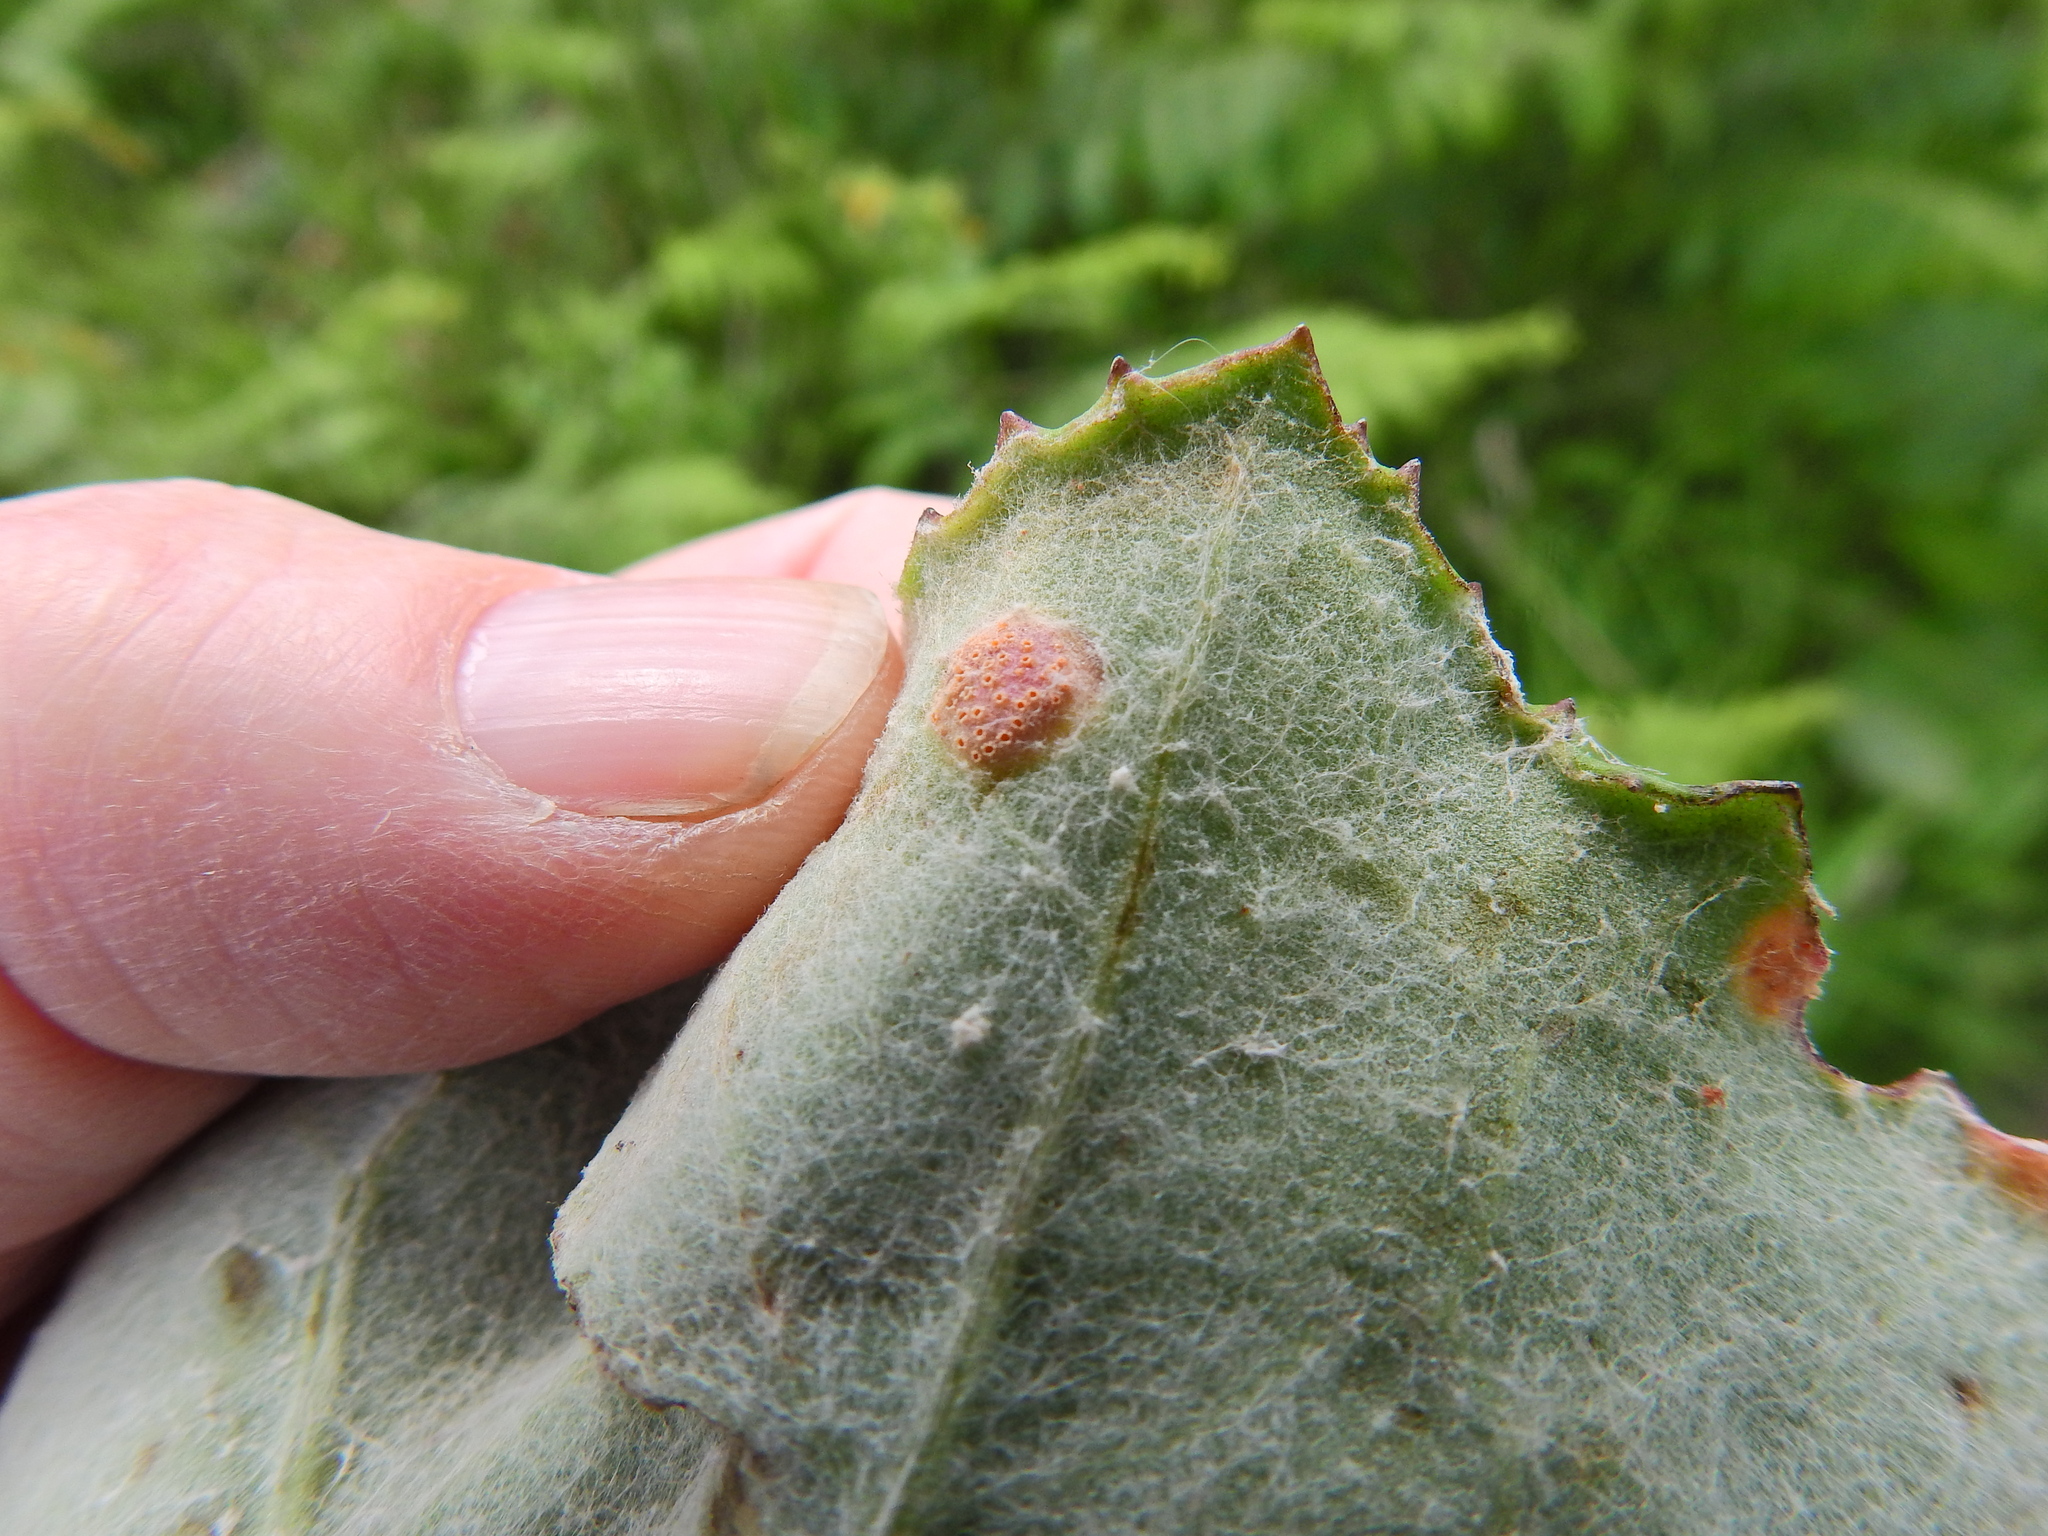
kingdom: Fungi
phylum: Basidiomycota
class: Pucciniomycetes
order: Pucciniales
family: Pucciniaceae
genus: Puccinia
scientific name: Puccinia
